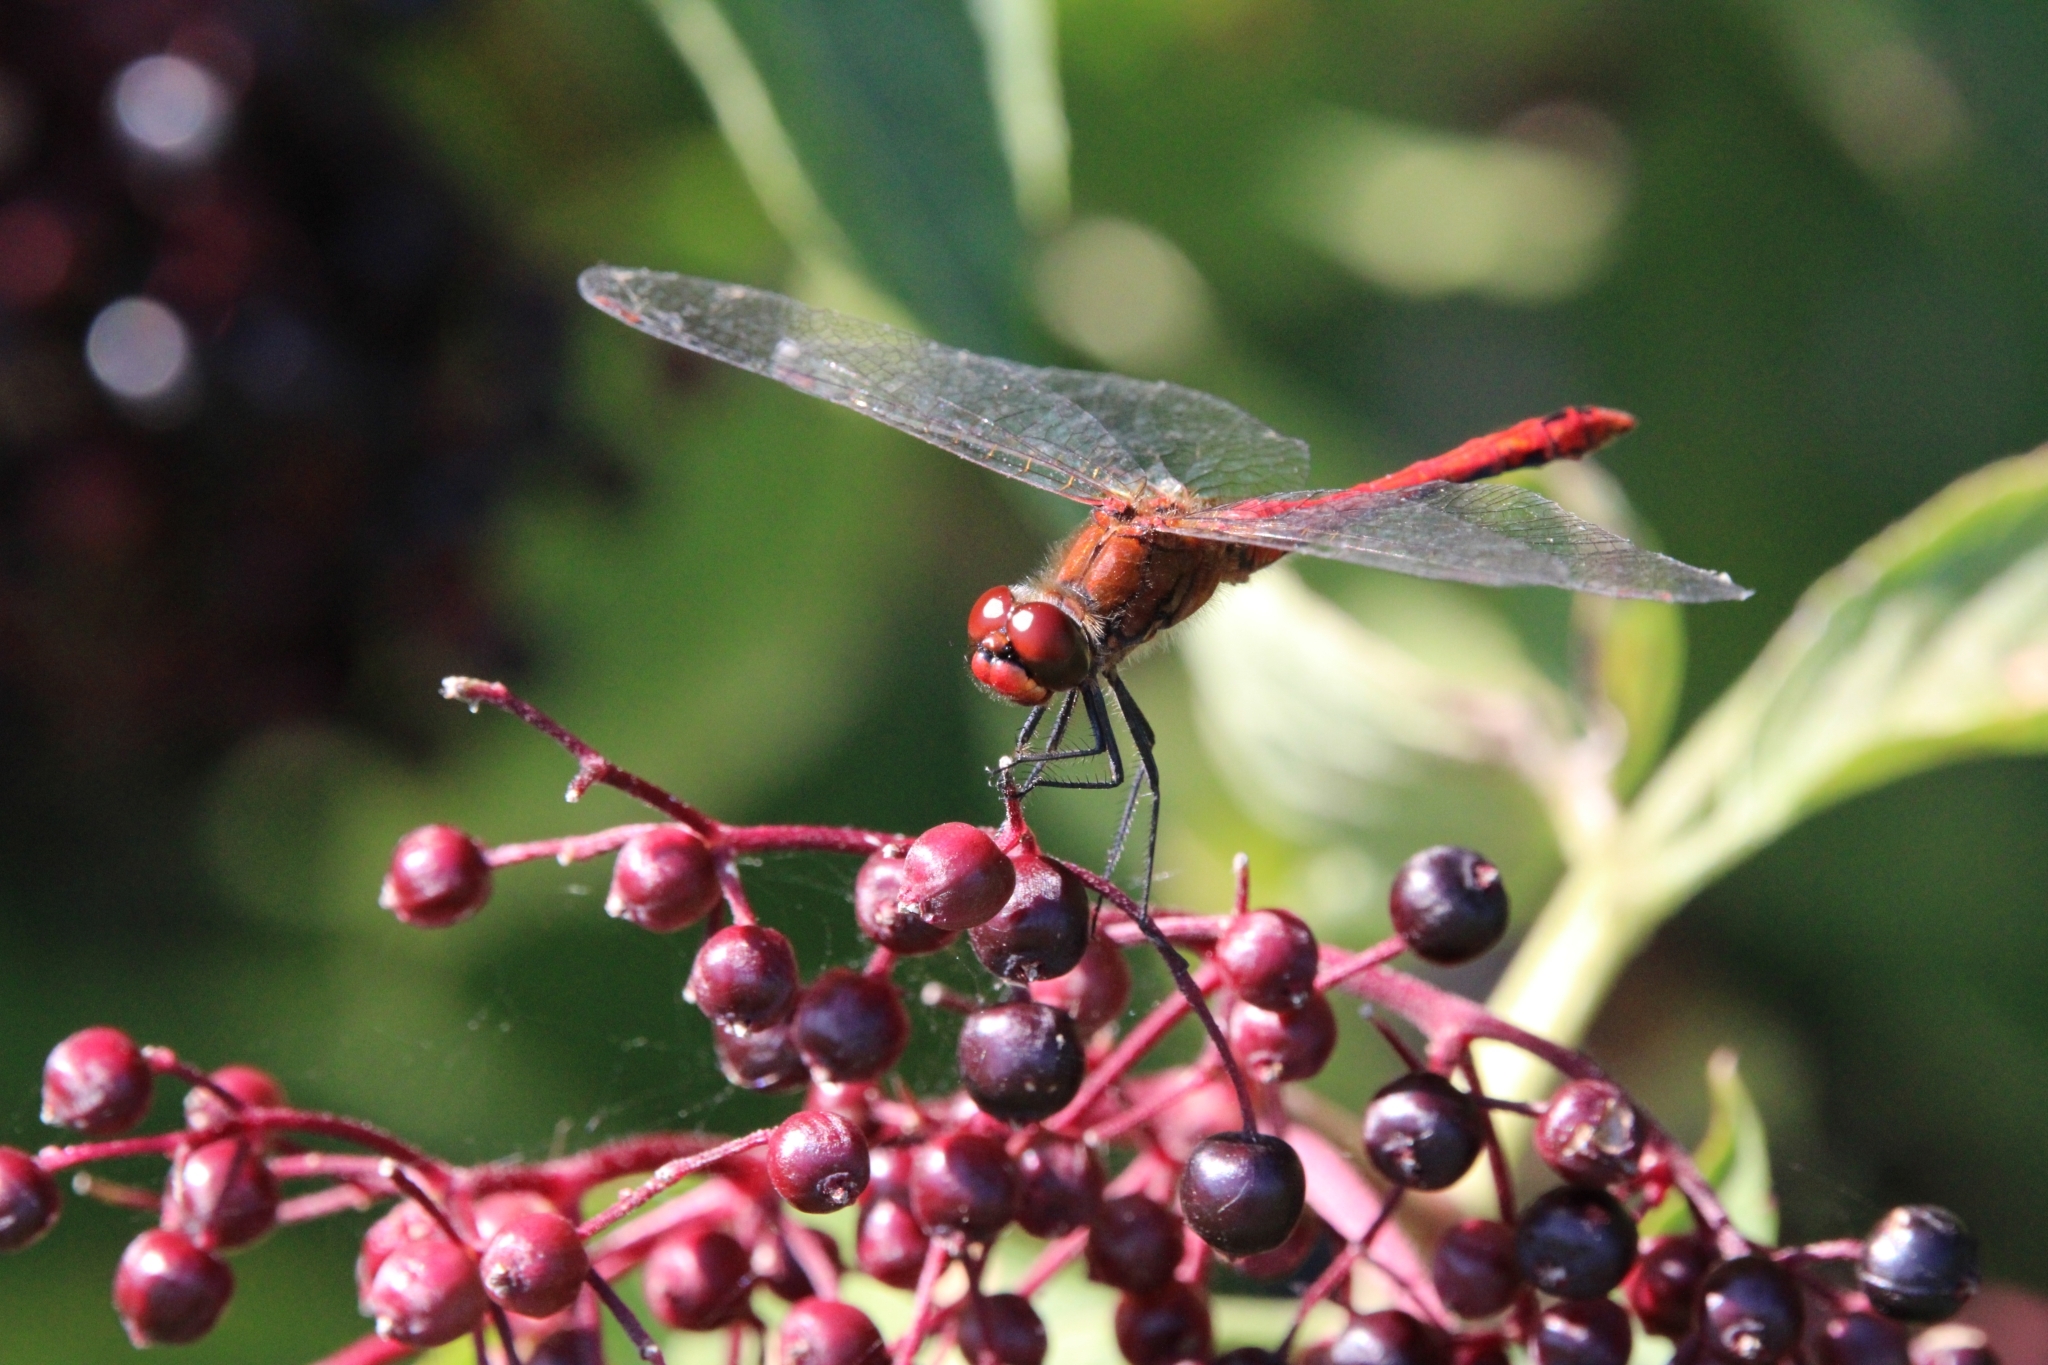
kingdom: Animalia
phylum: Arthropoda
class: Insecta
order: Odonata
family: Libellulidae
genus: Sympetrum
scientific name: Sympetrum sanguineum
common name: Ruddy darter
